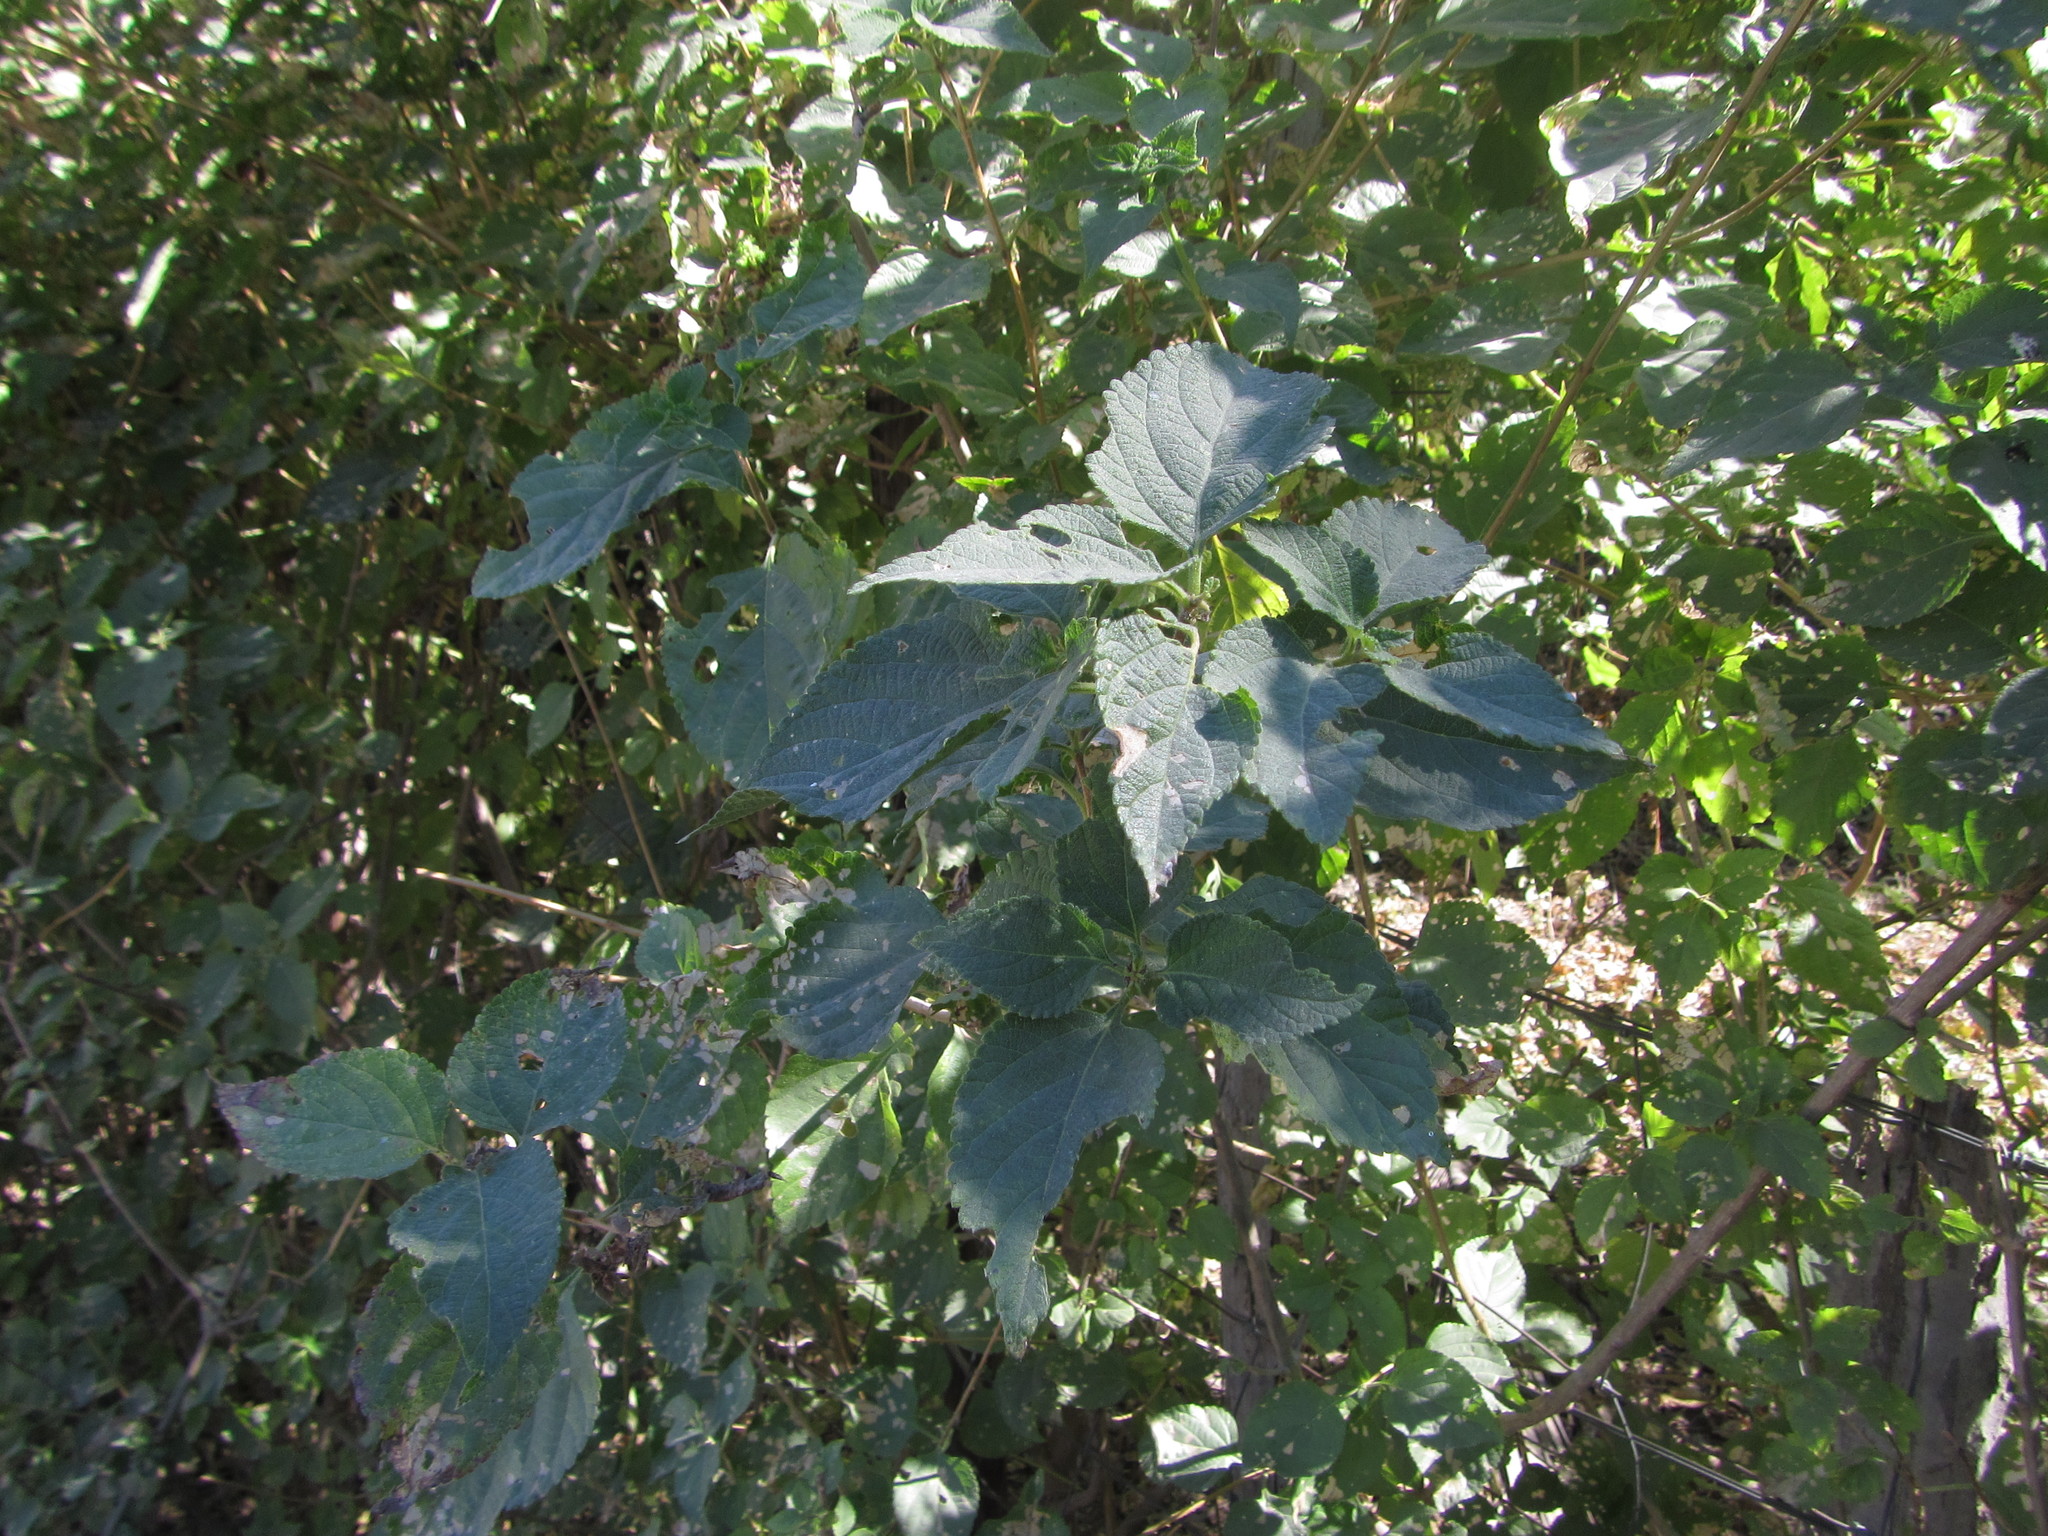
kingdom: Plantae
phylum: Tracheophyta
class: Magnoliopsida
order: Lamiales
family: Verbenaceae
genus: Lantana
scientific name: Lantana camara
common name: Lantana
